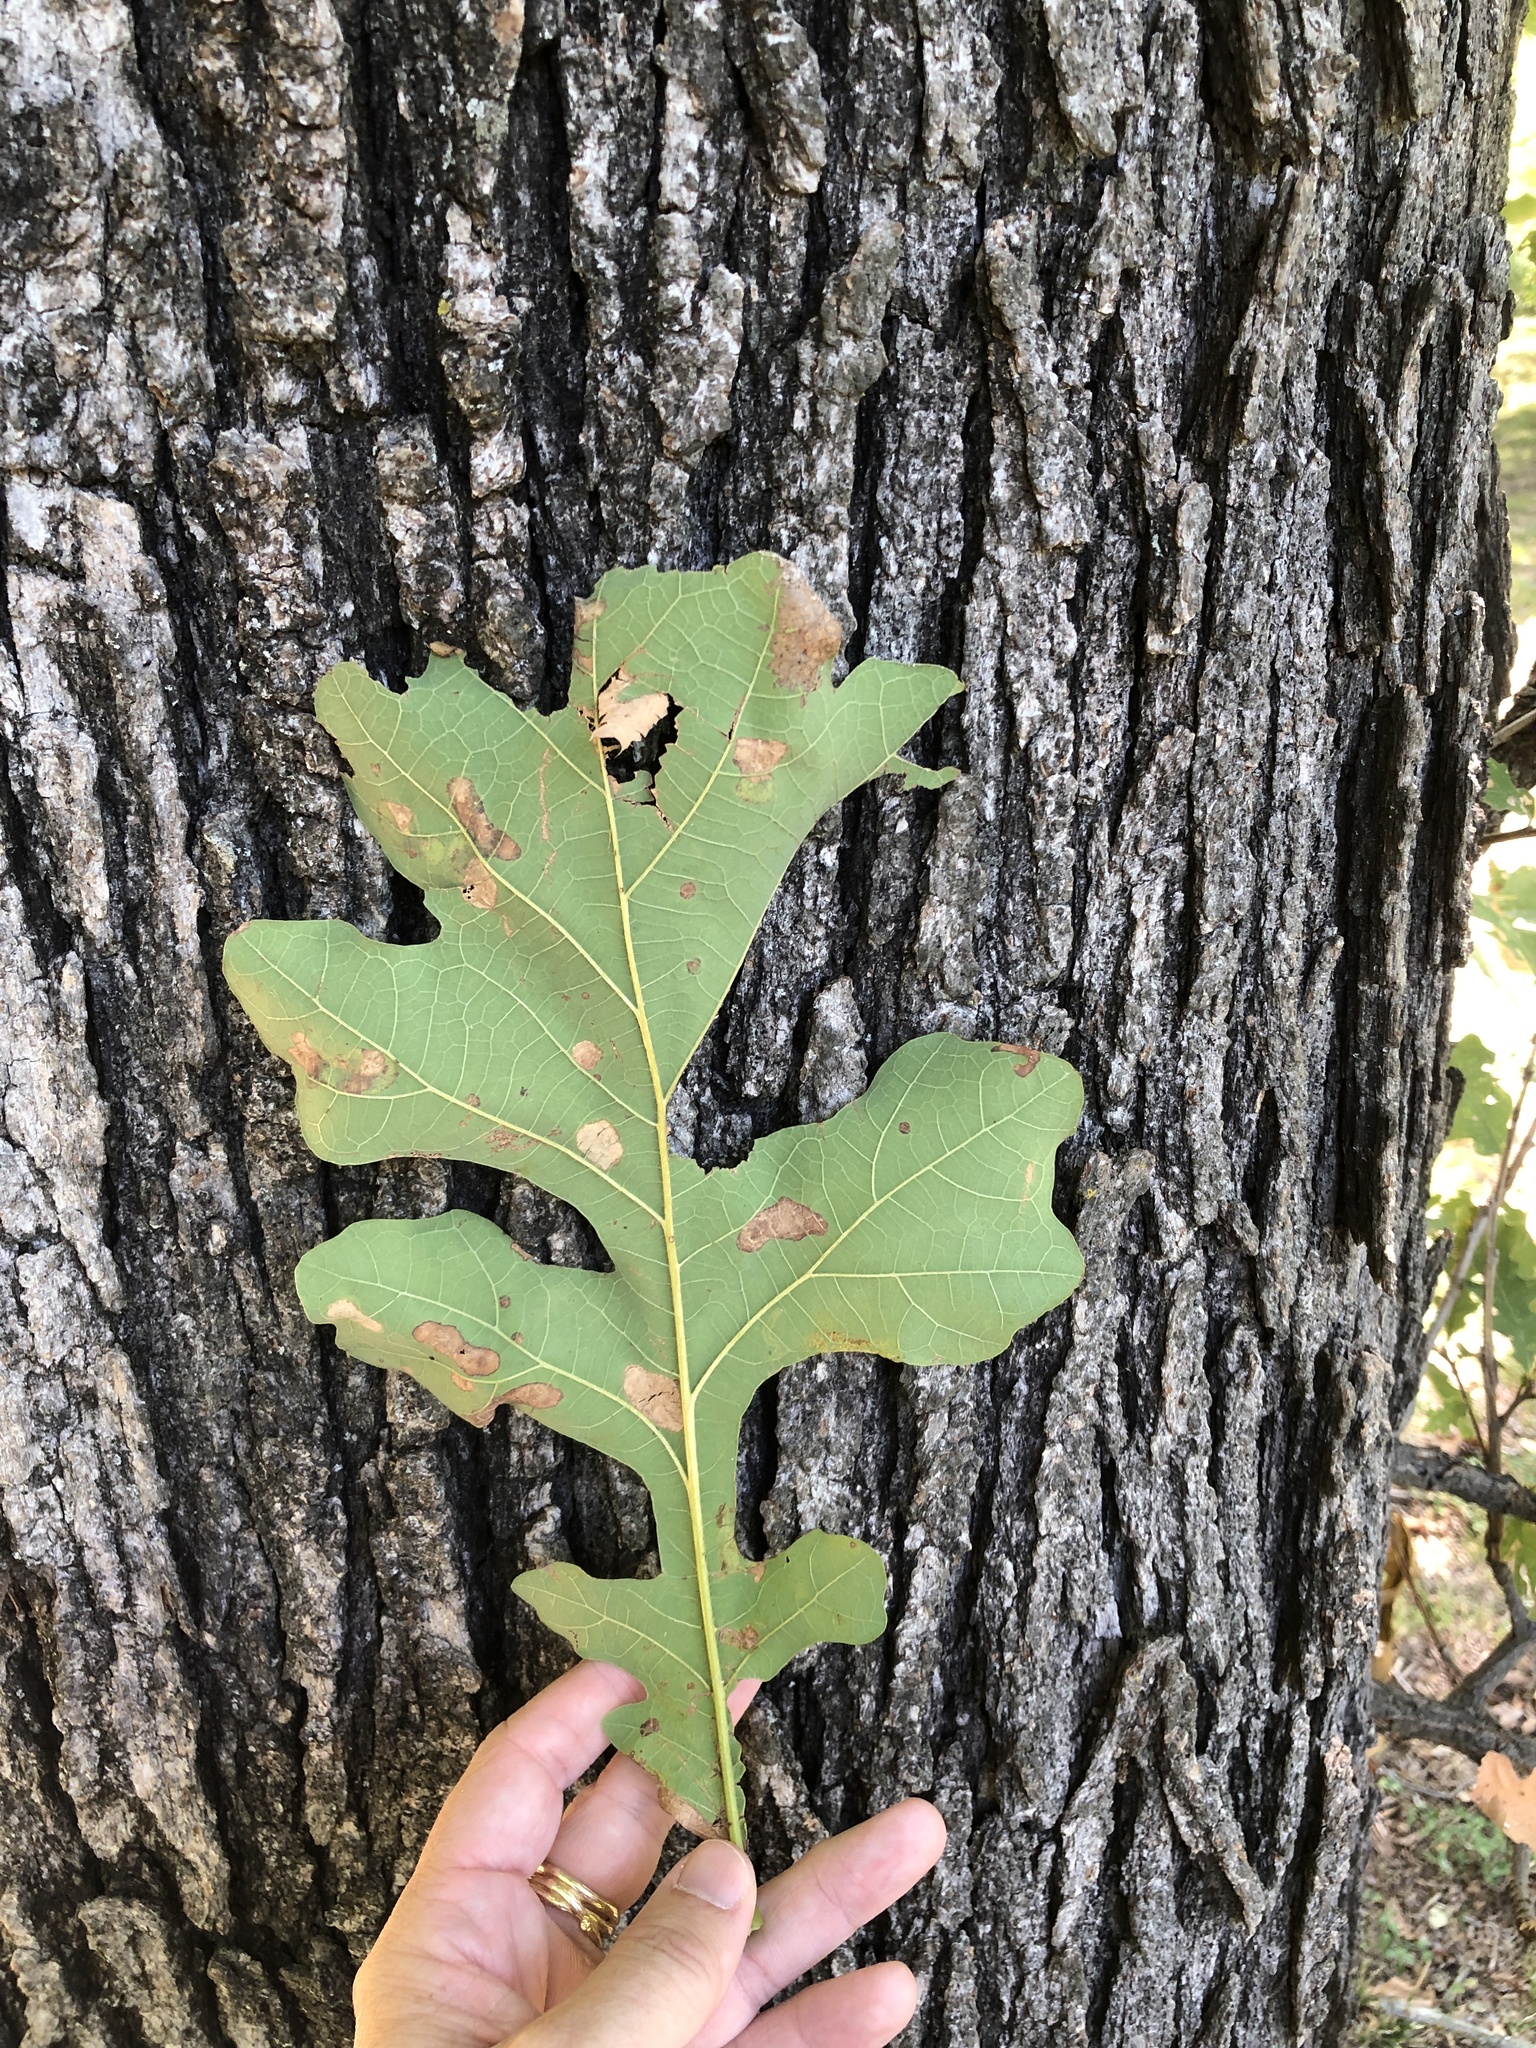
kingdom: Plantae
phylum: Tracheophyta
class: Magnoliopsida
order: Fagales
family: Fagaceae
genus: Quercus
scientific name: Quercus macrocarpa
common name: Bur oak
